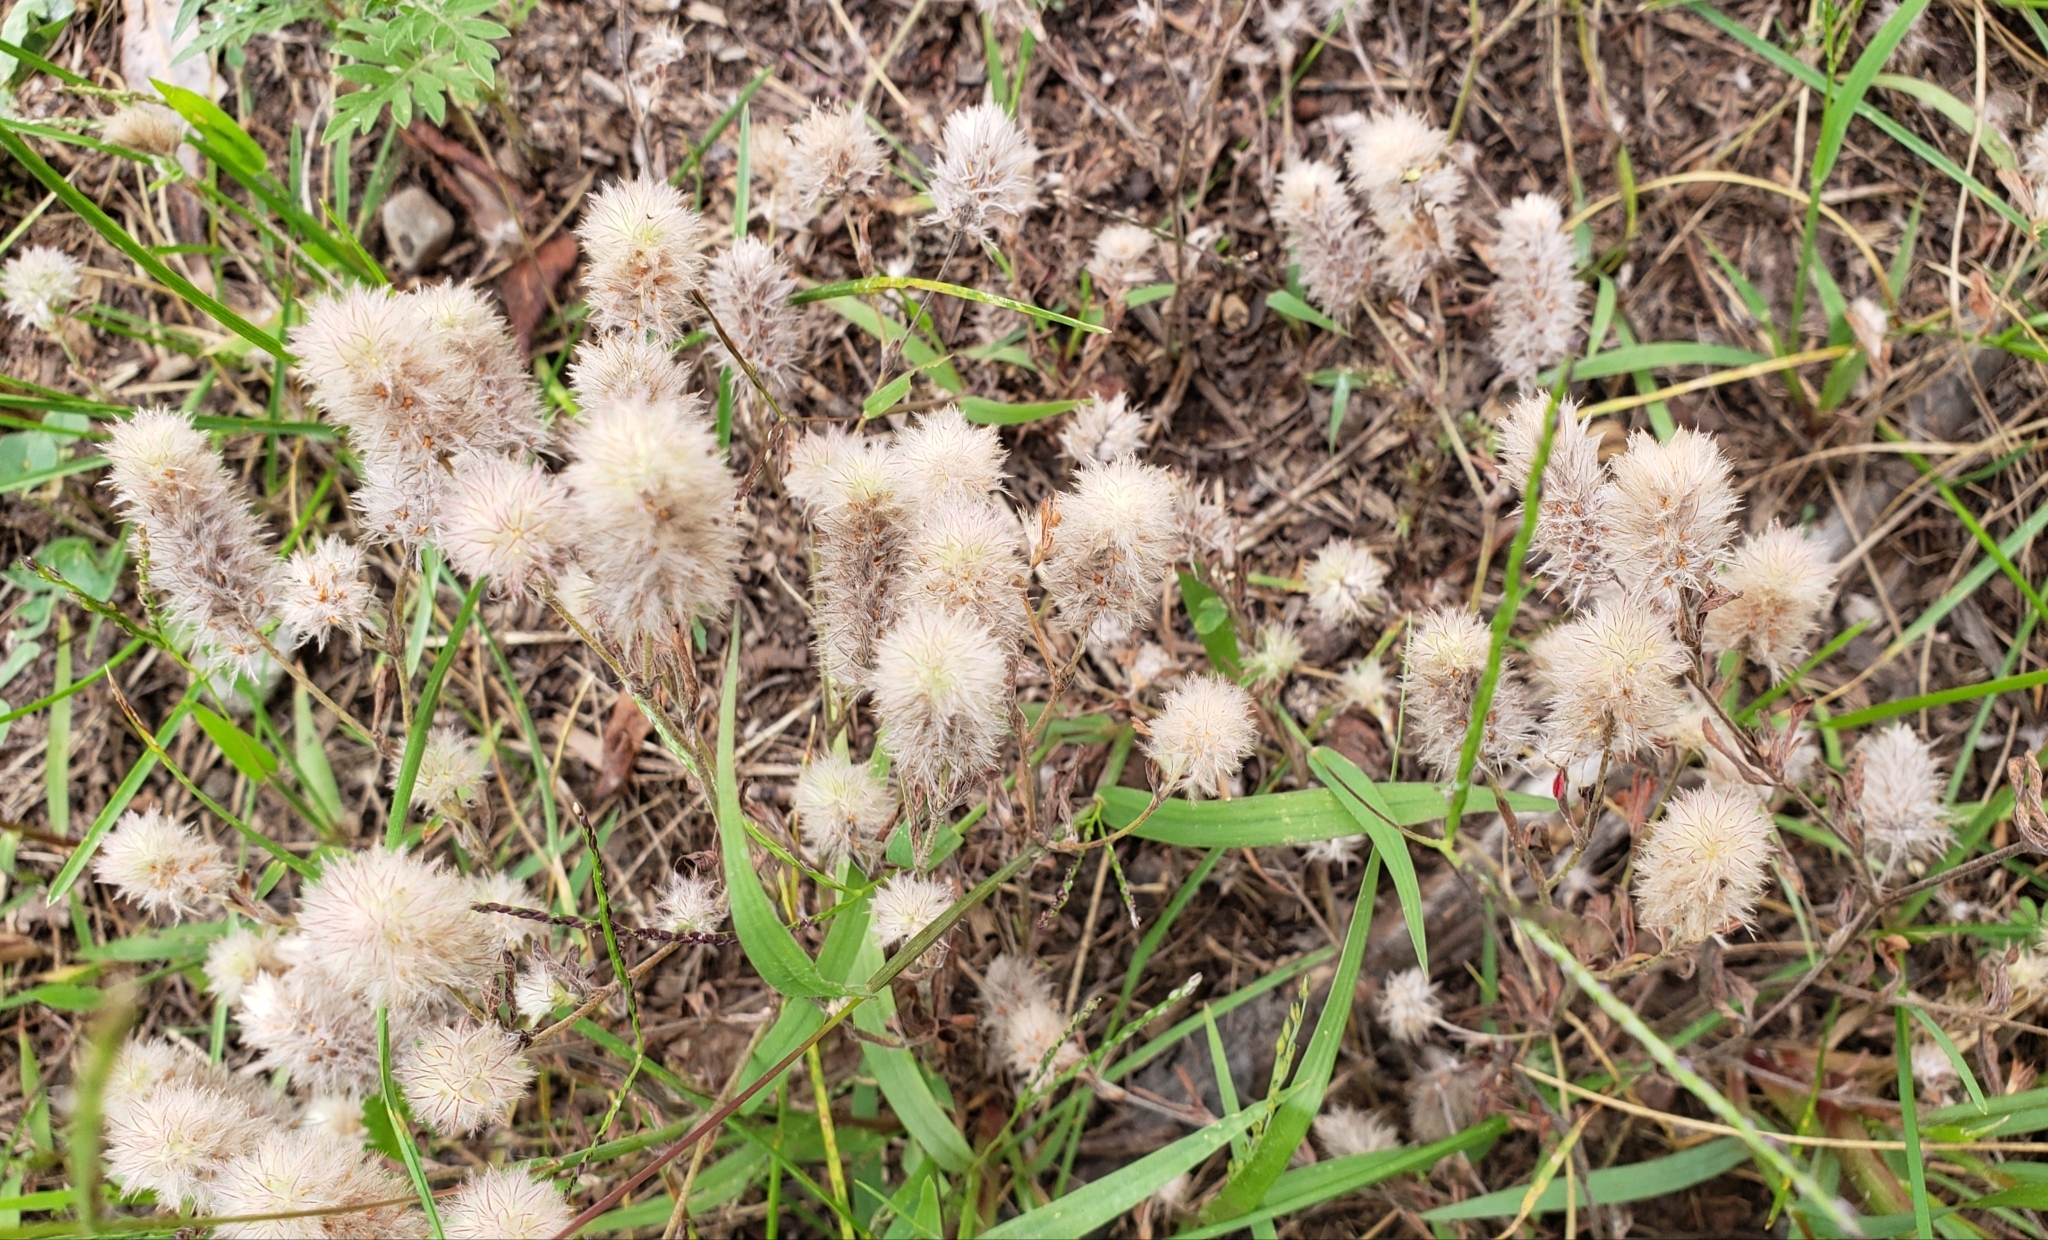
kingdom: Plantae
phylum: Tracheophyta
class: Magnoliopsida
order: Fabales
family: Fabaceae
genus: Trifolium
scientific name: Trifolium arvense
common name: Hare's-foot clover
